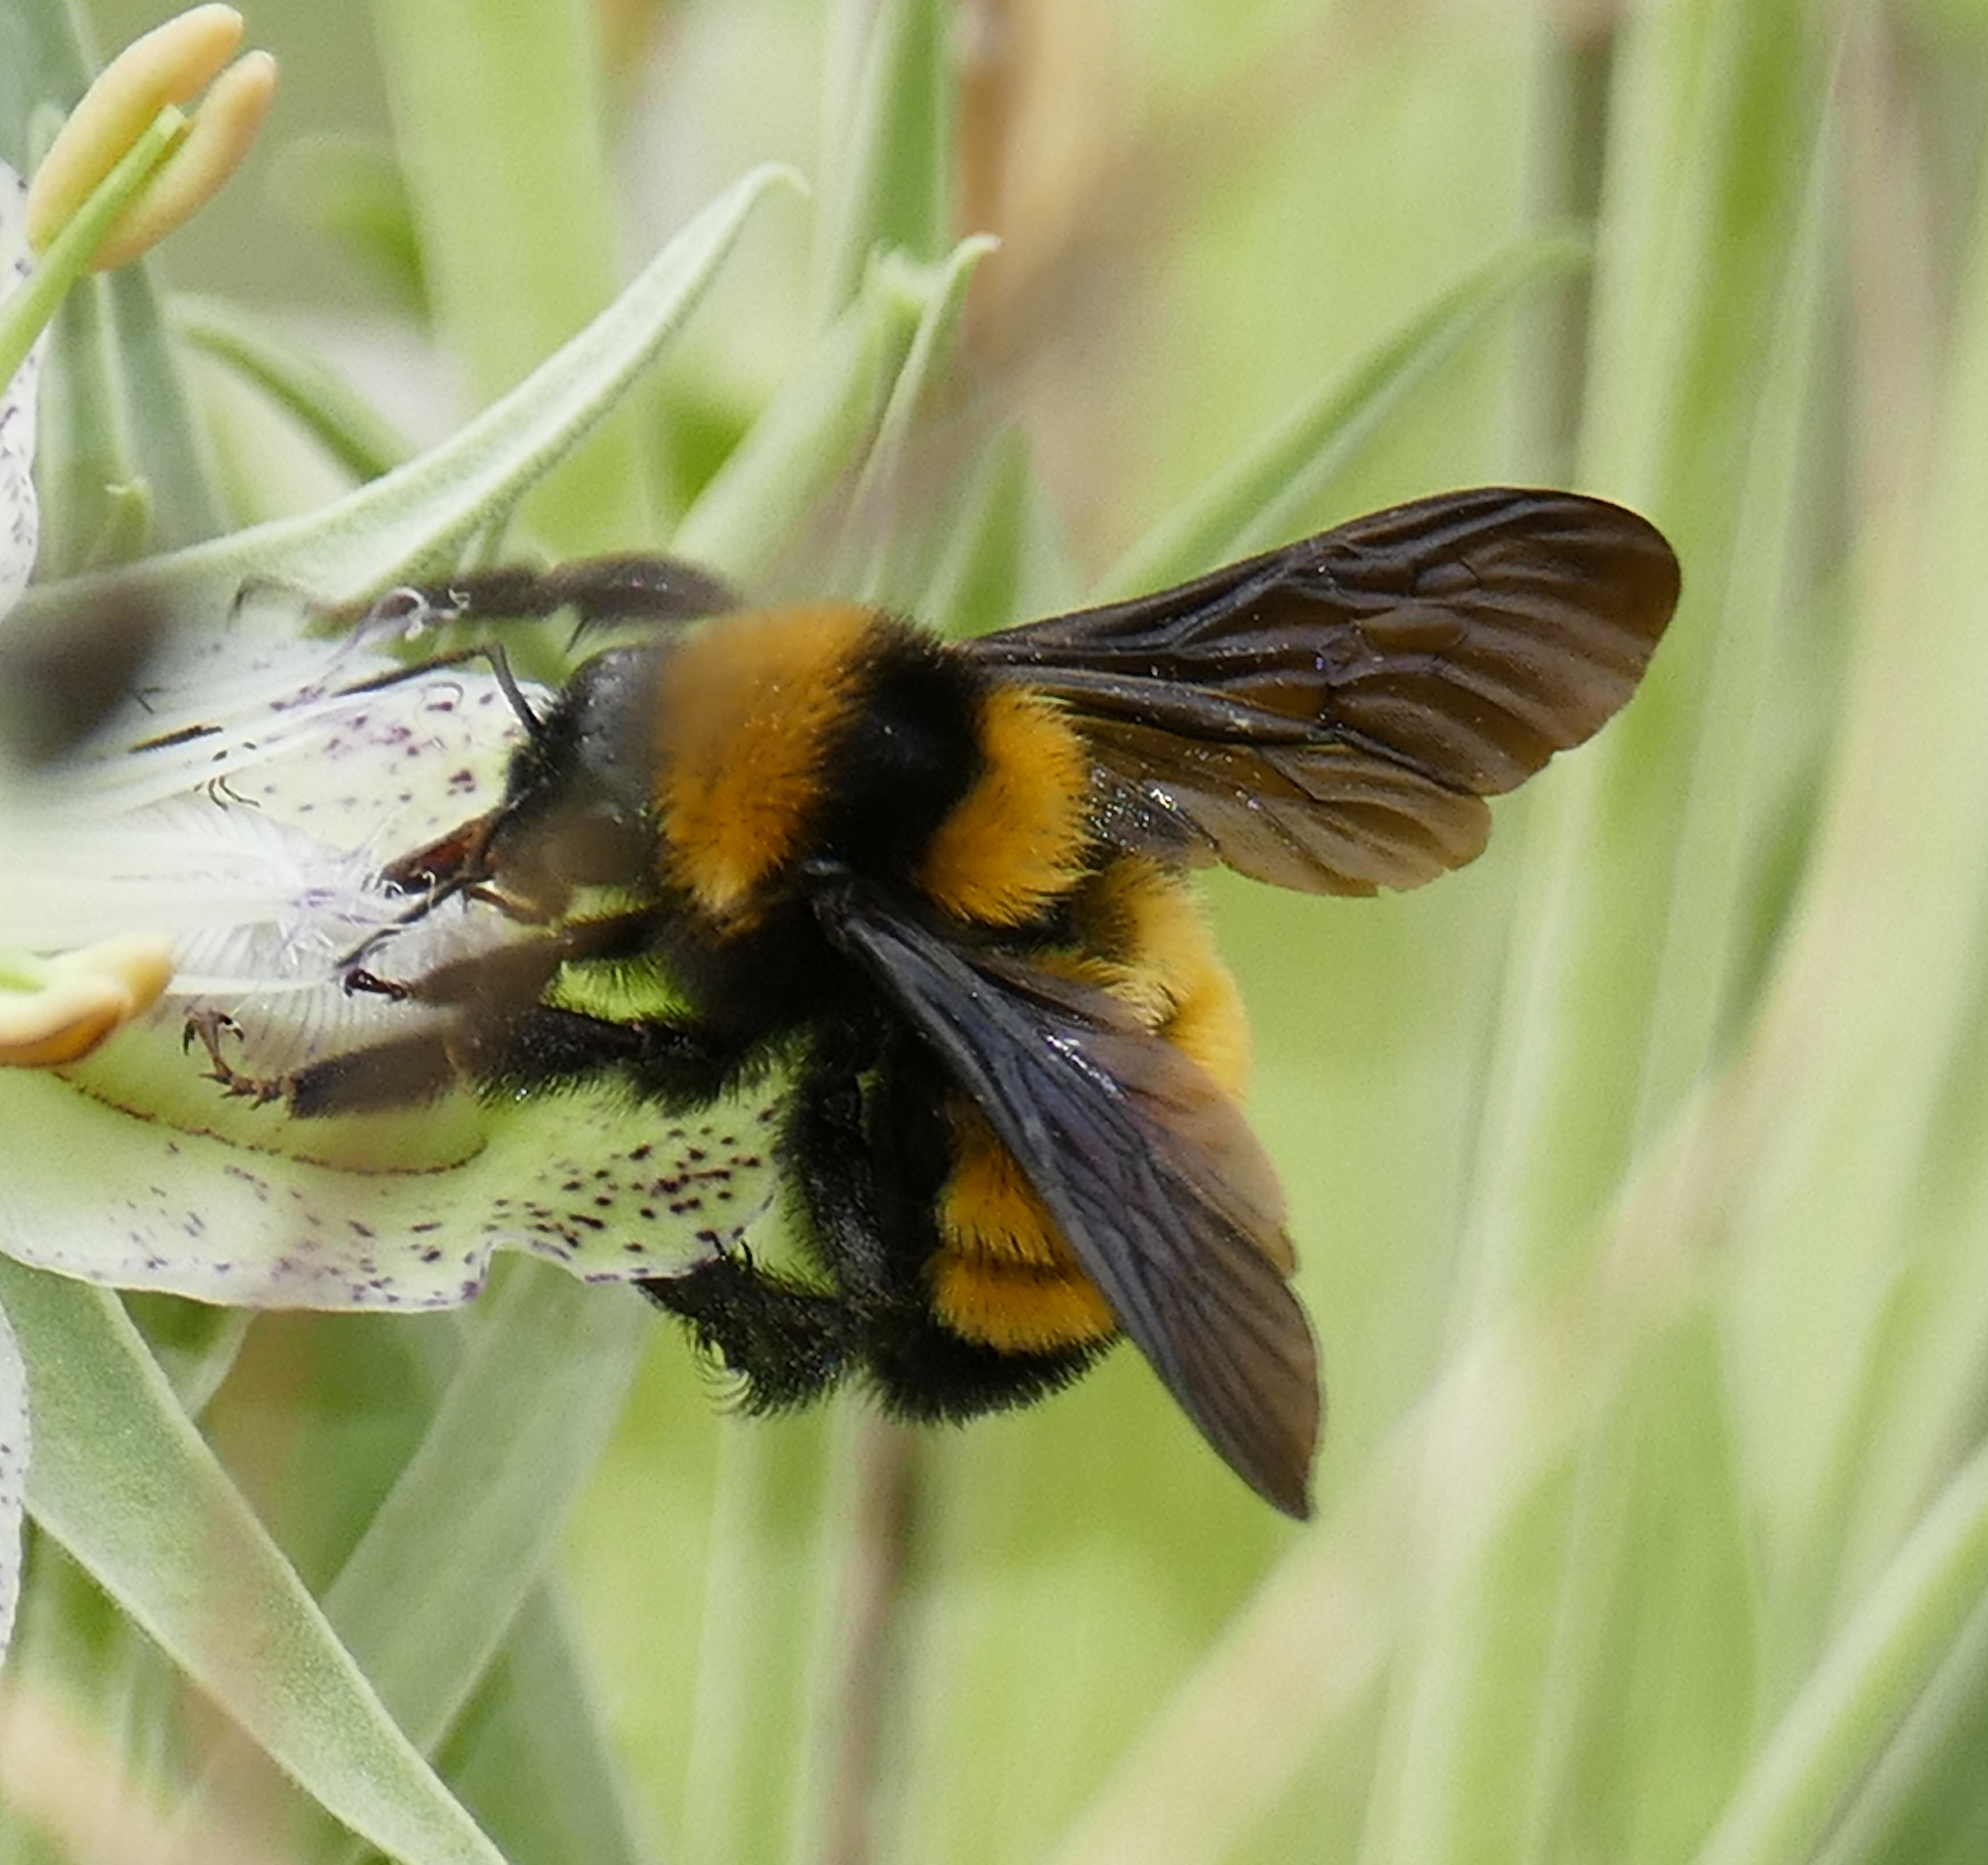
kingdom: Animalia
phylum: Arthropoda
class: Insecta
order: Hymenoptera
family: Apidae
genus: Bombus
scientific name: Bombus sonorus
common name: Sonoran bumble bee
